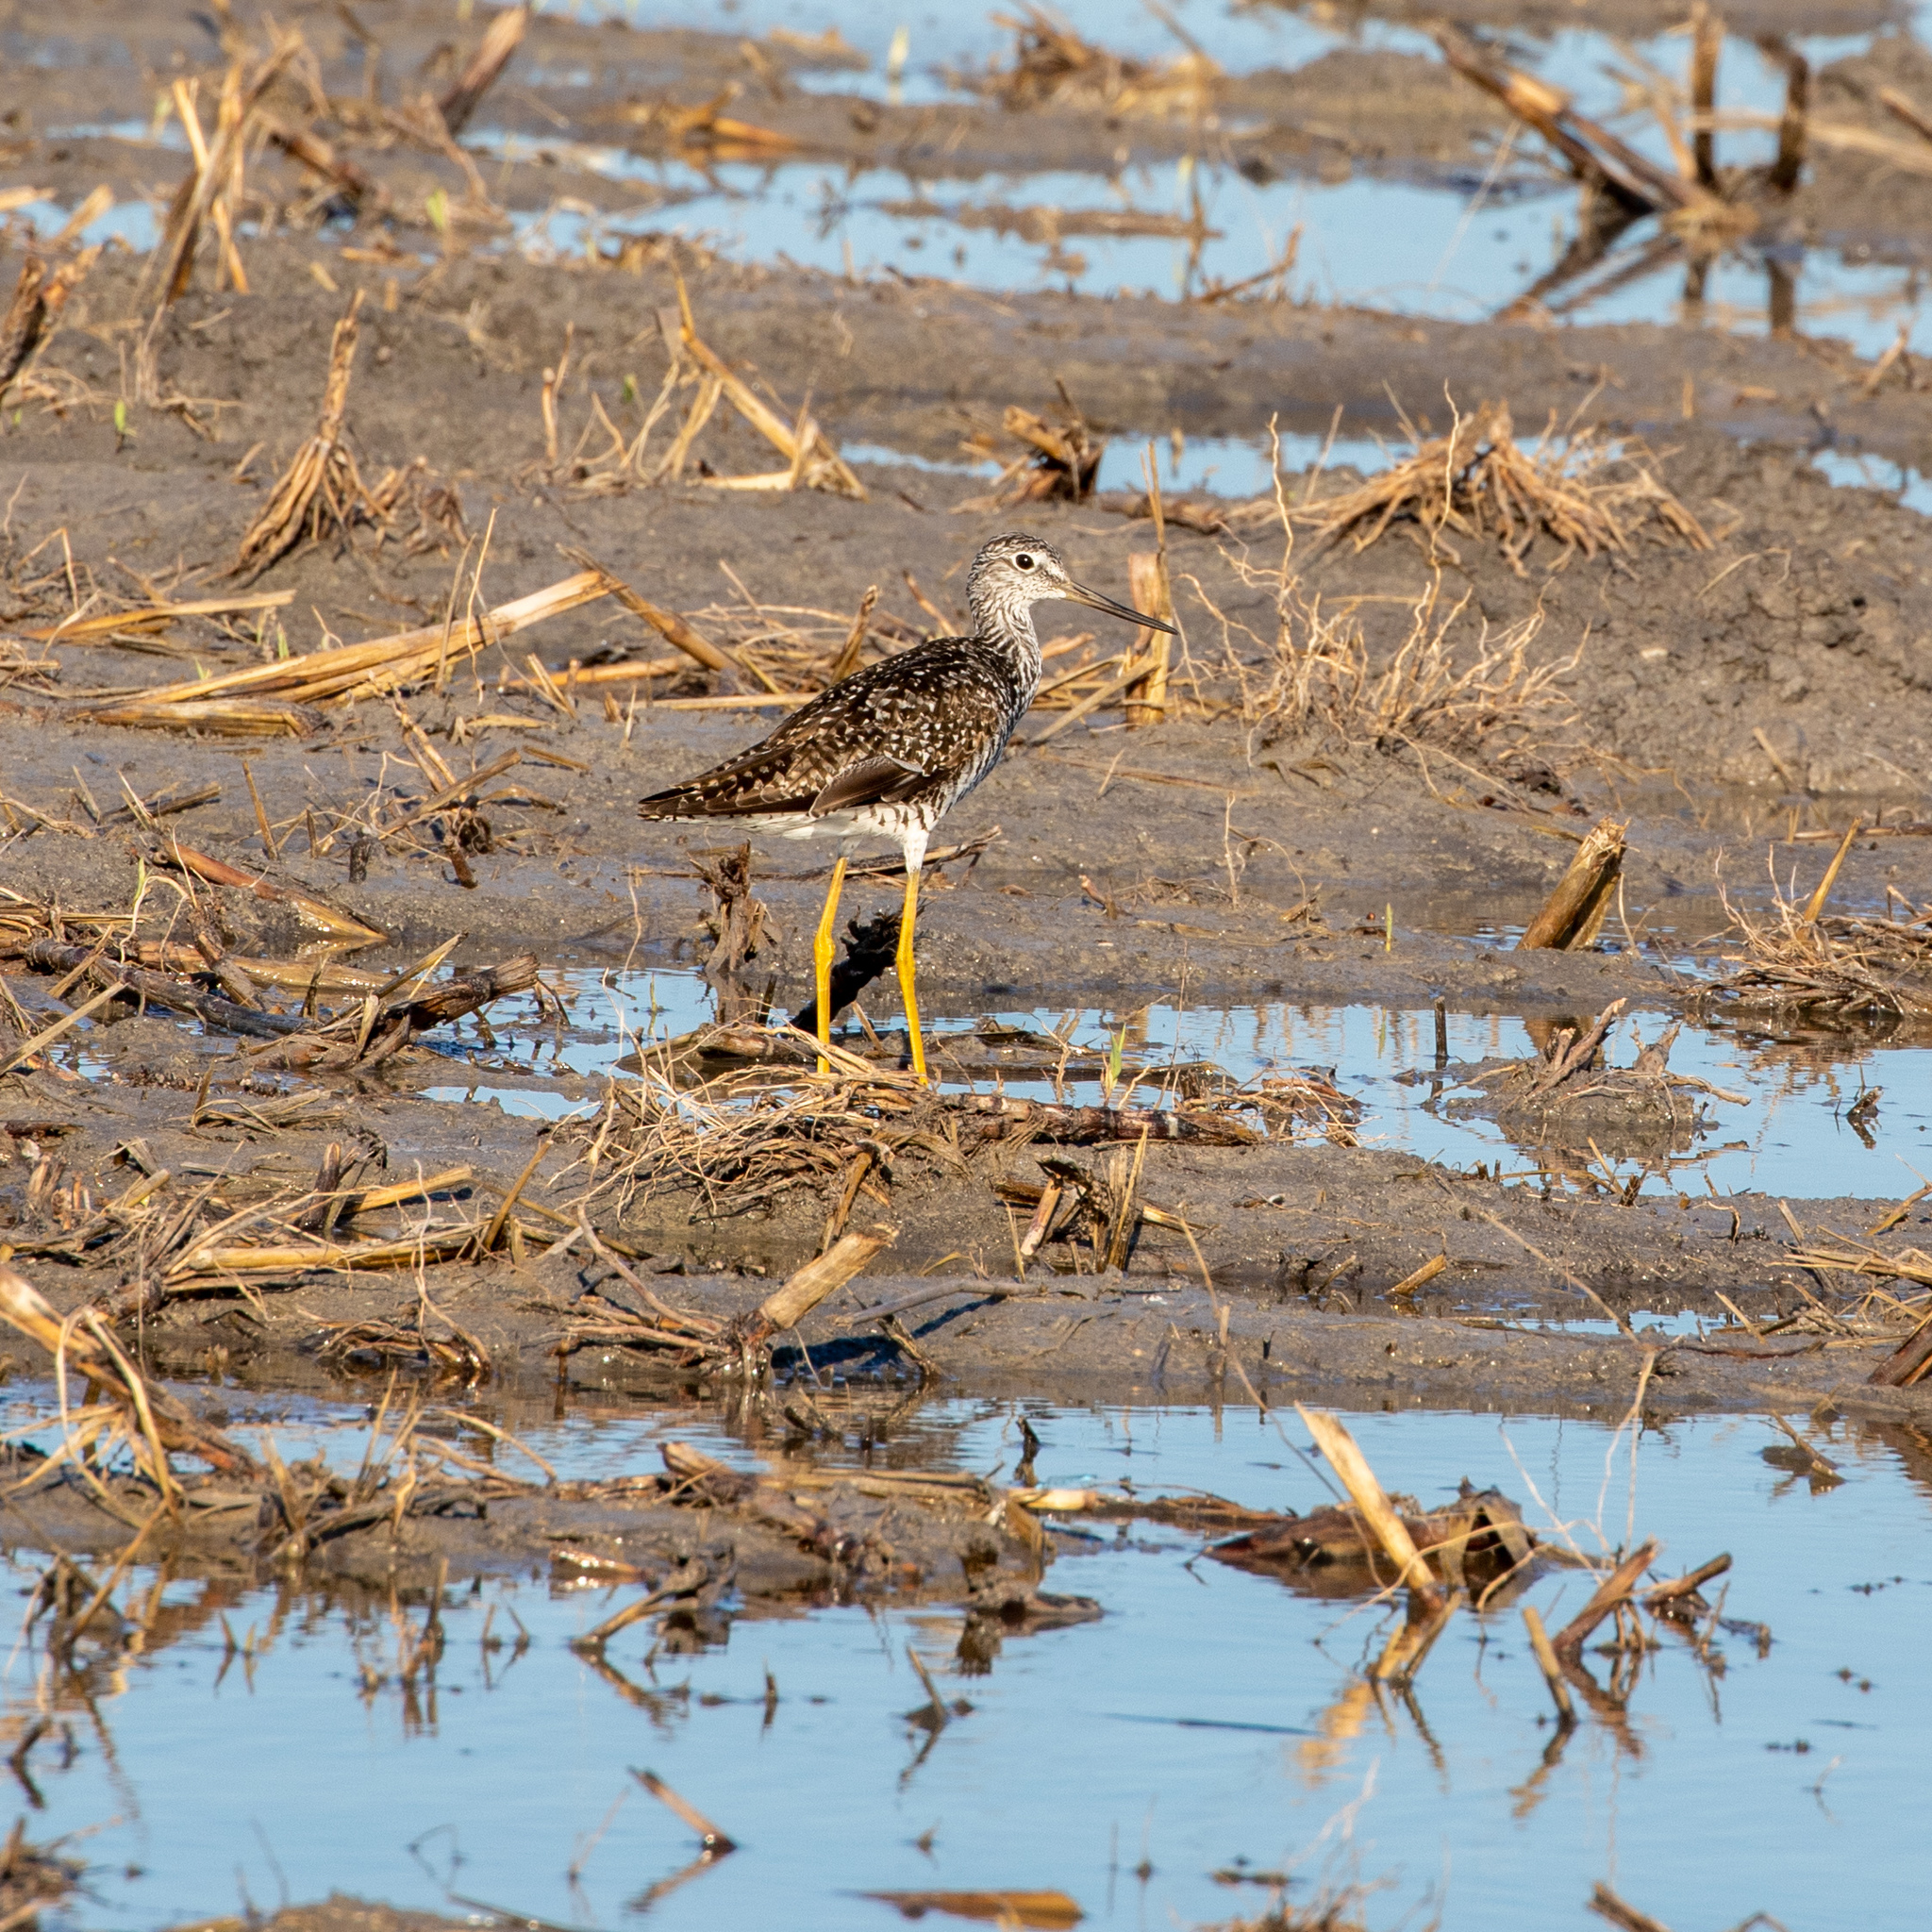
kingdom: Animalia
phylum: Chordata
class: Aves
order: Charadriiformes
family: Scolopacidae
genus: Tringa
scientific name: Tringa melanoleuca
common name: Greater yellowlegs
